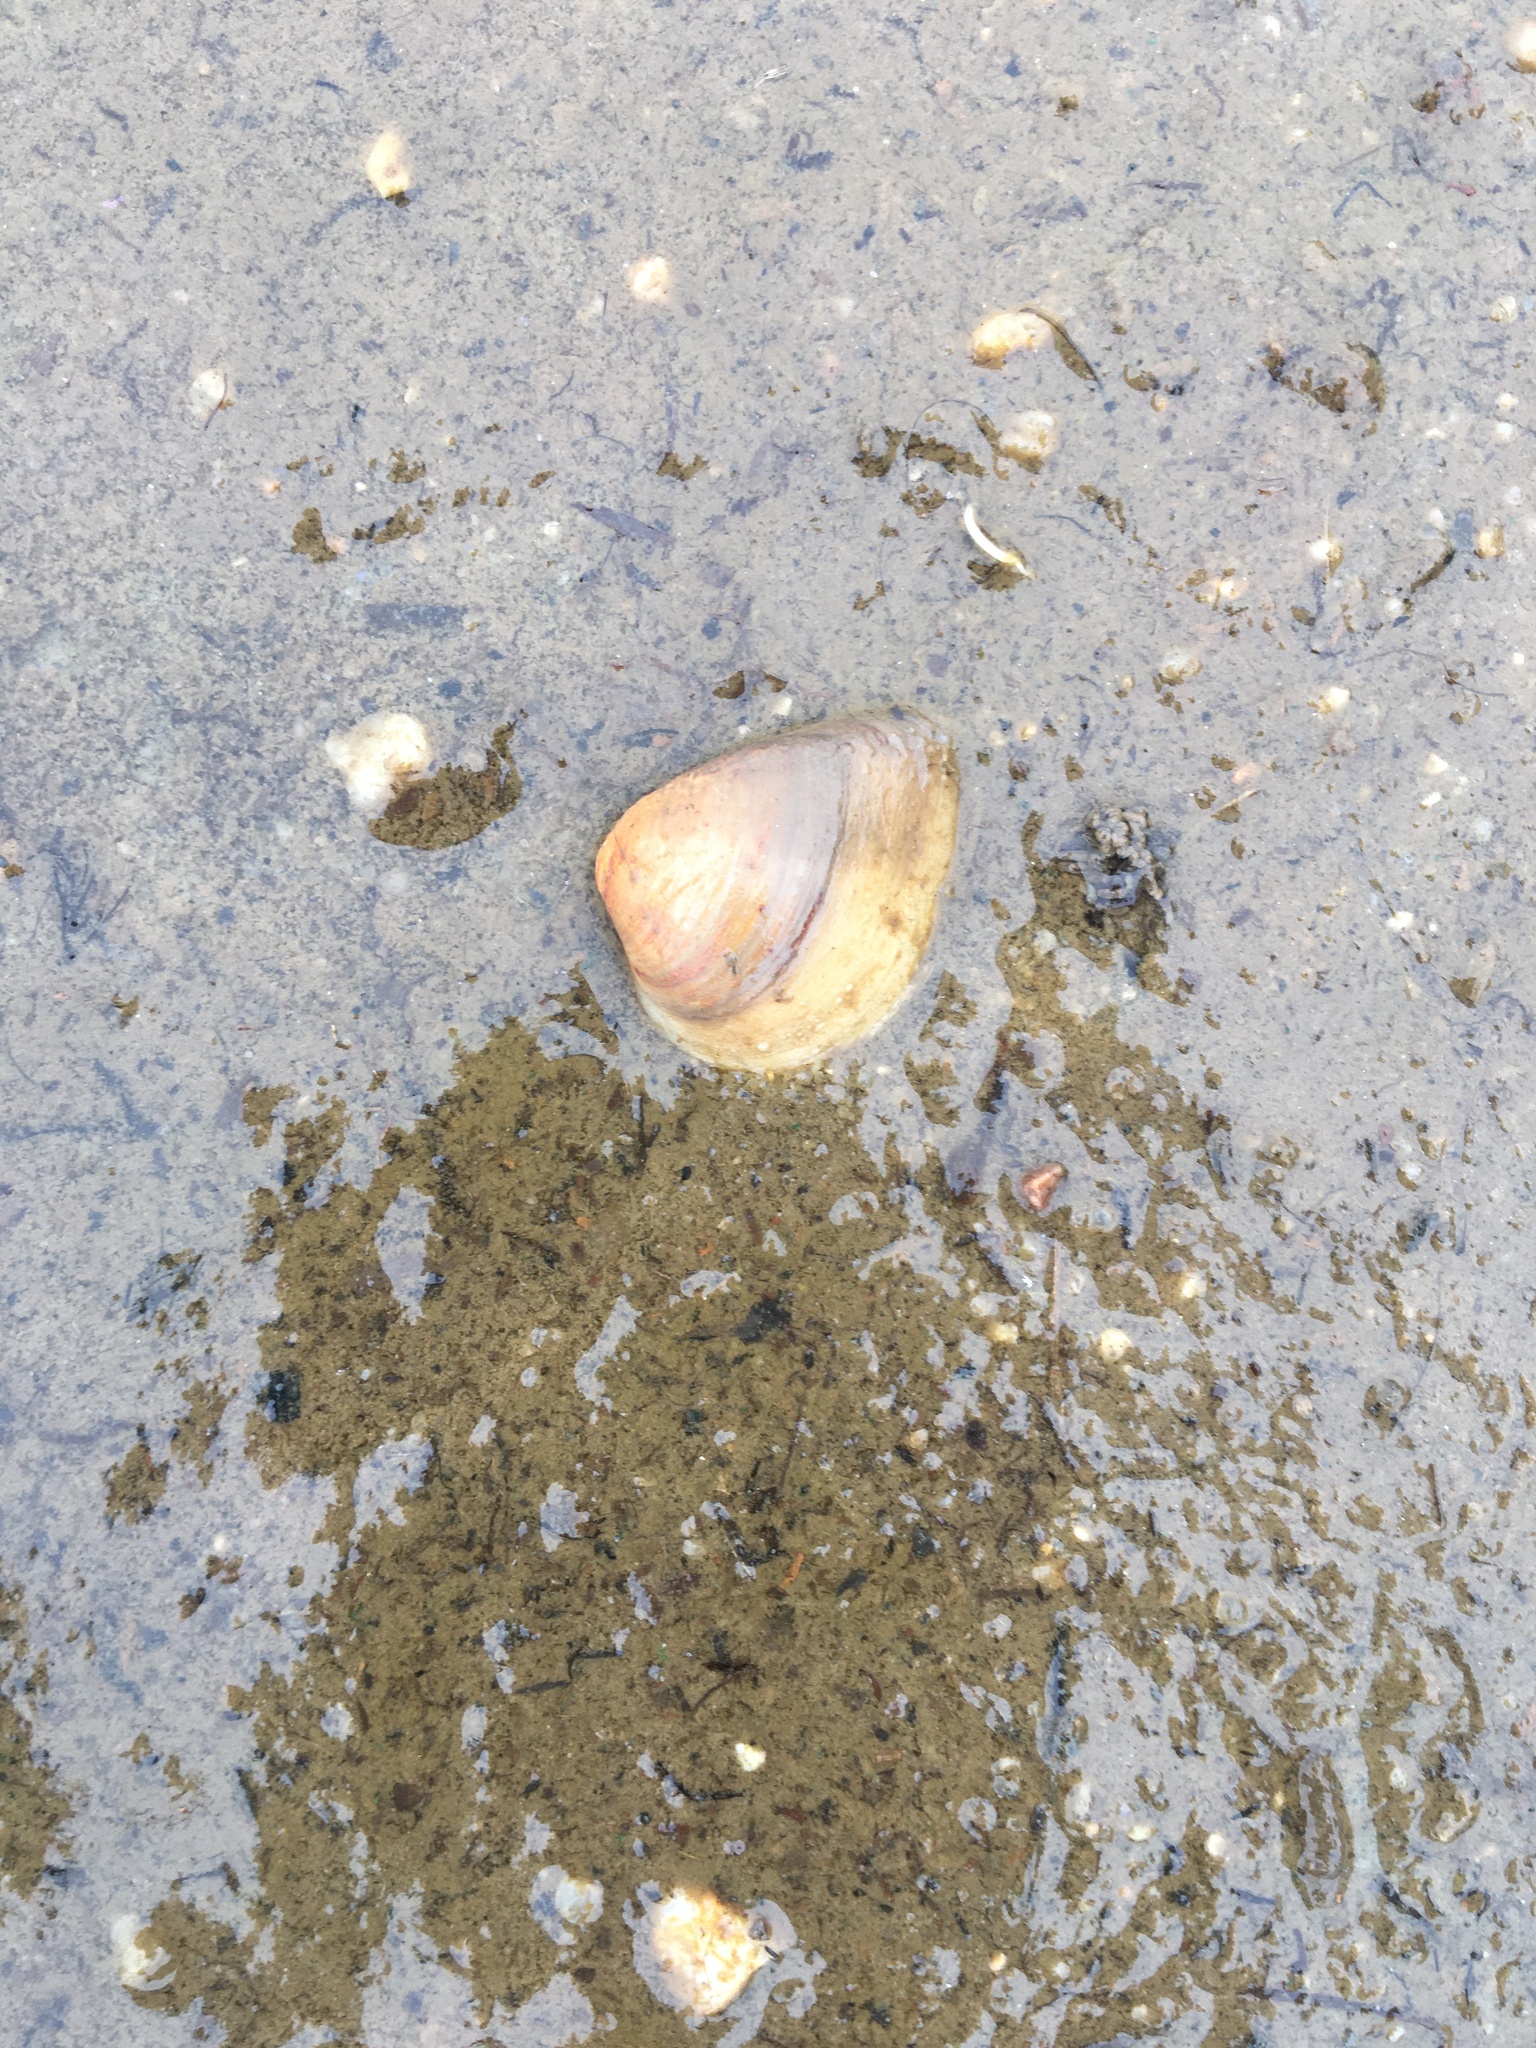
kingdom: Animalia
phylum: Mollusca
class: Bivalvia
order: Venerida
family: Mactridae
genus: Rangia
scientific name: Rangia cuneata
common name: Atlantic rangia
